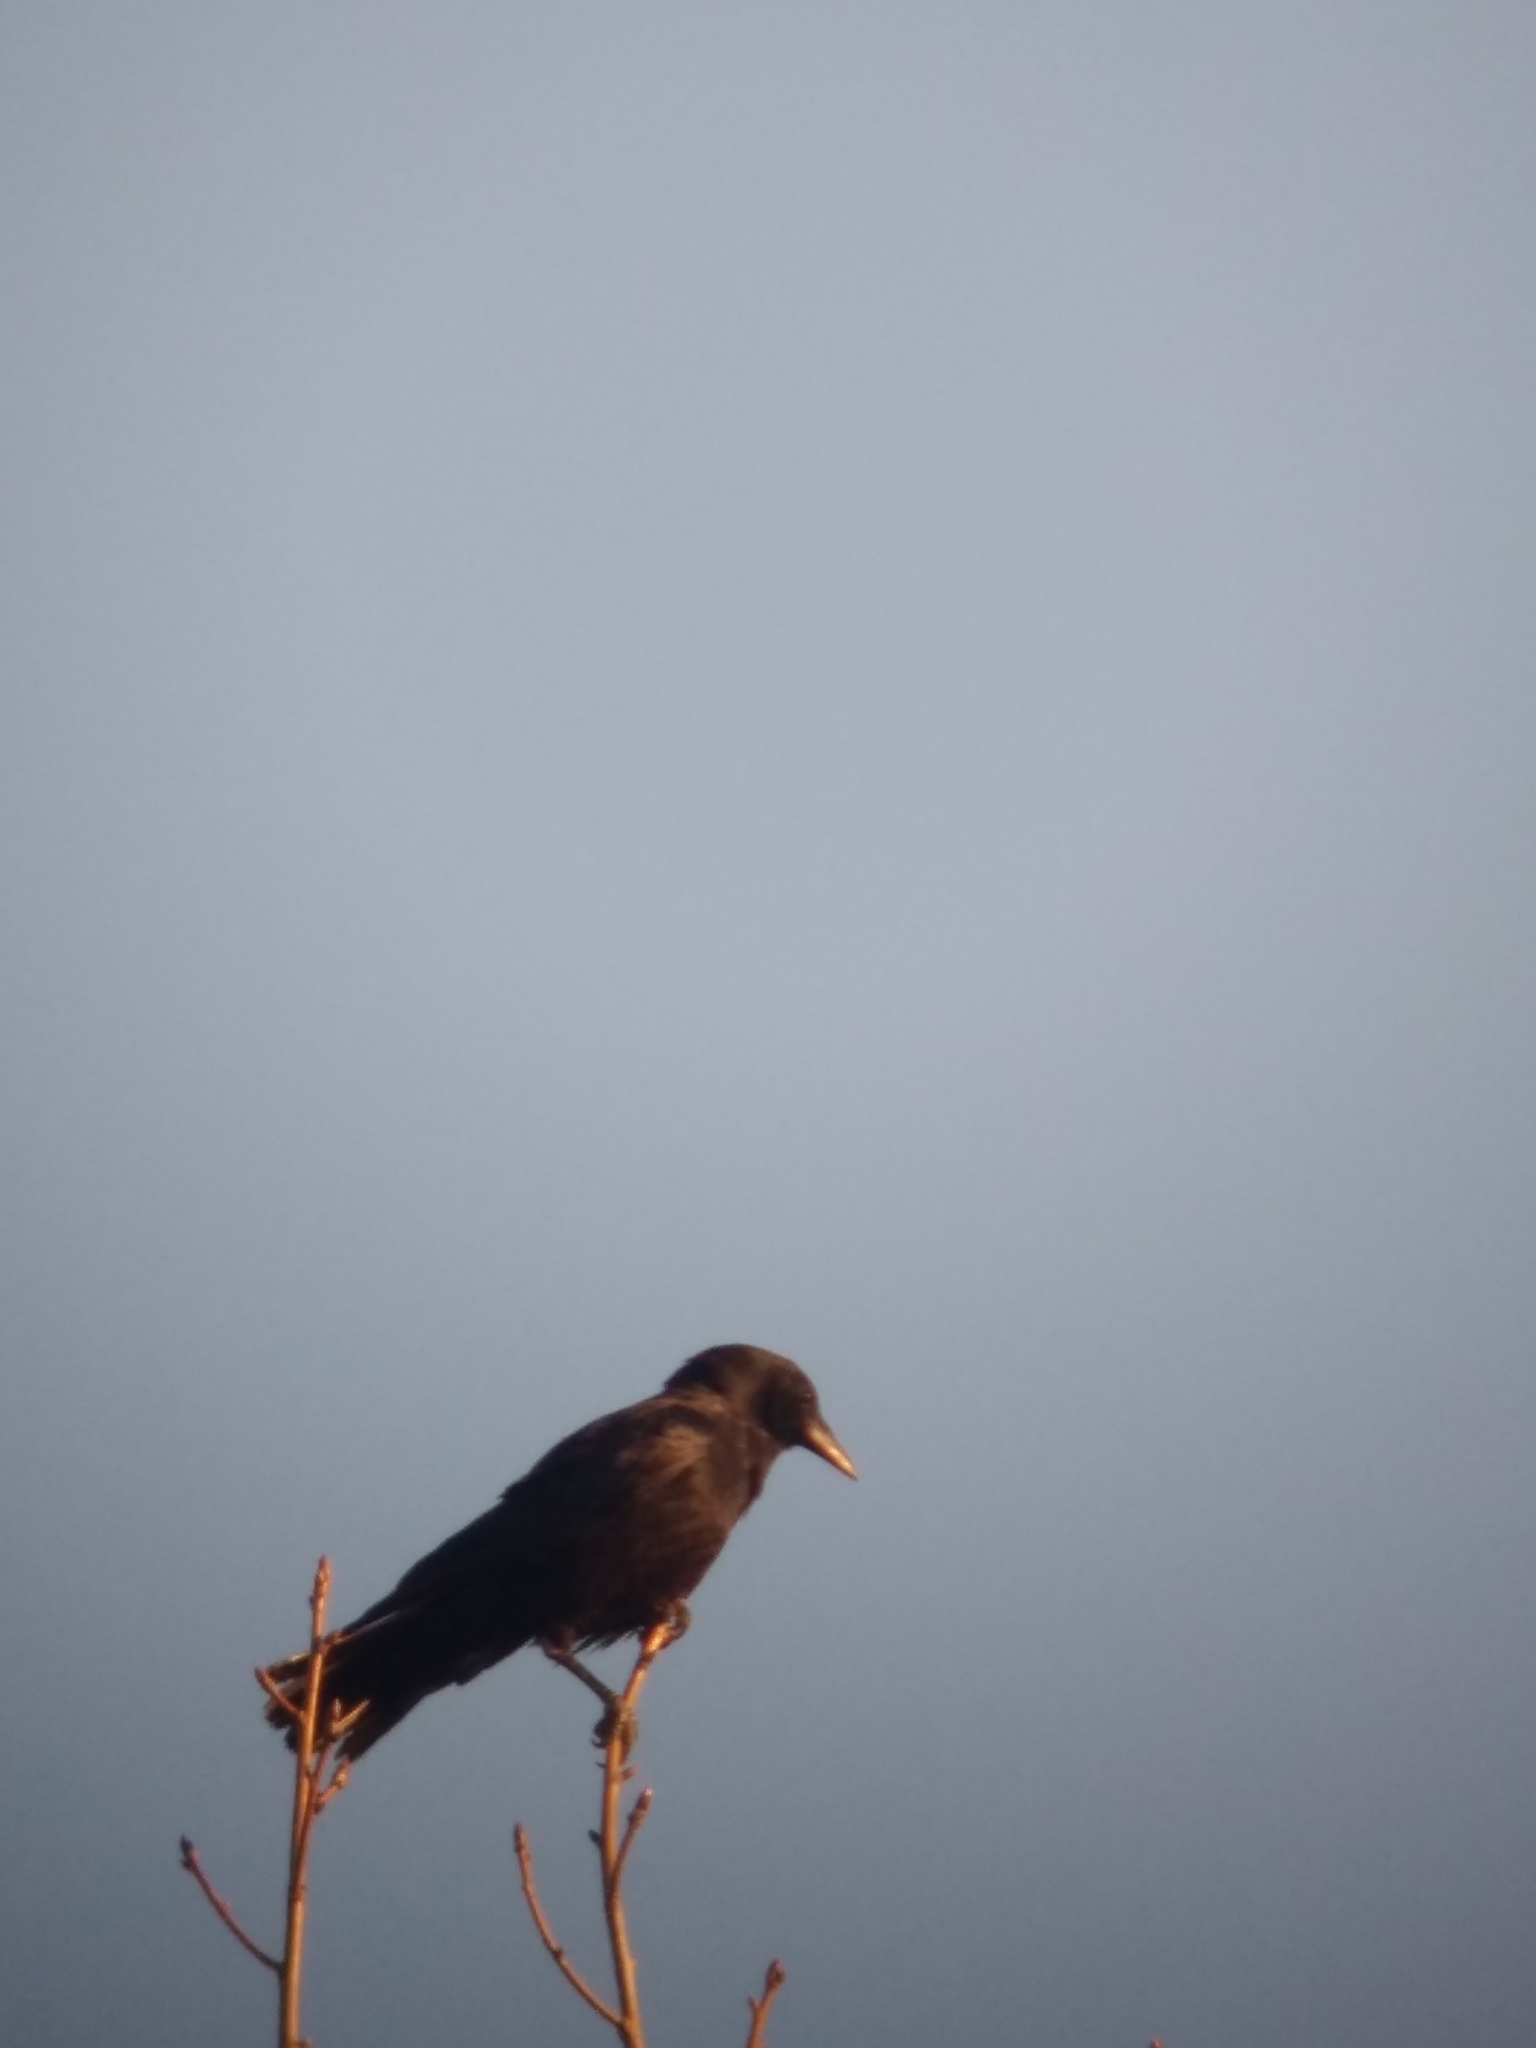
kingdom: Animalia
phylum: Chordata
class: Aves
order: Passeriformes
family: Corvidae
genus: Corvus
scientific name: Corvus brachyrhynchos
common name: American crow
